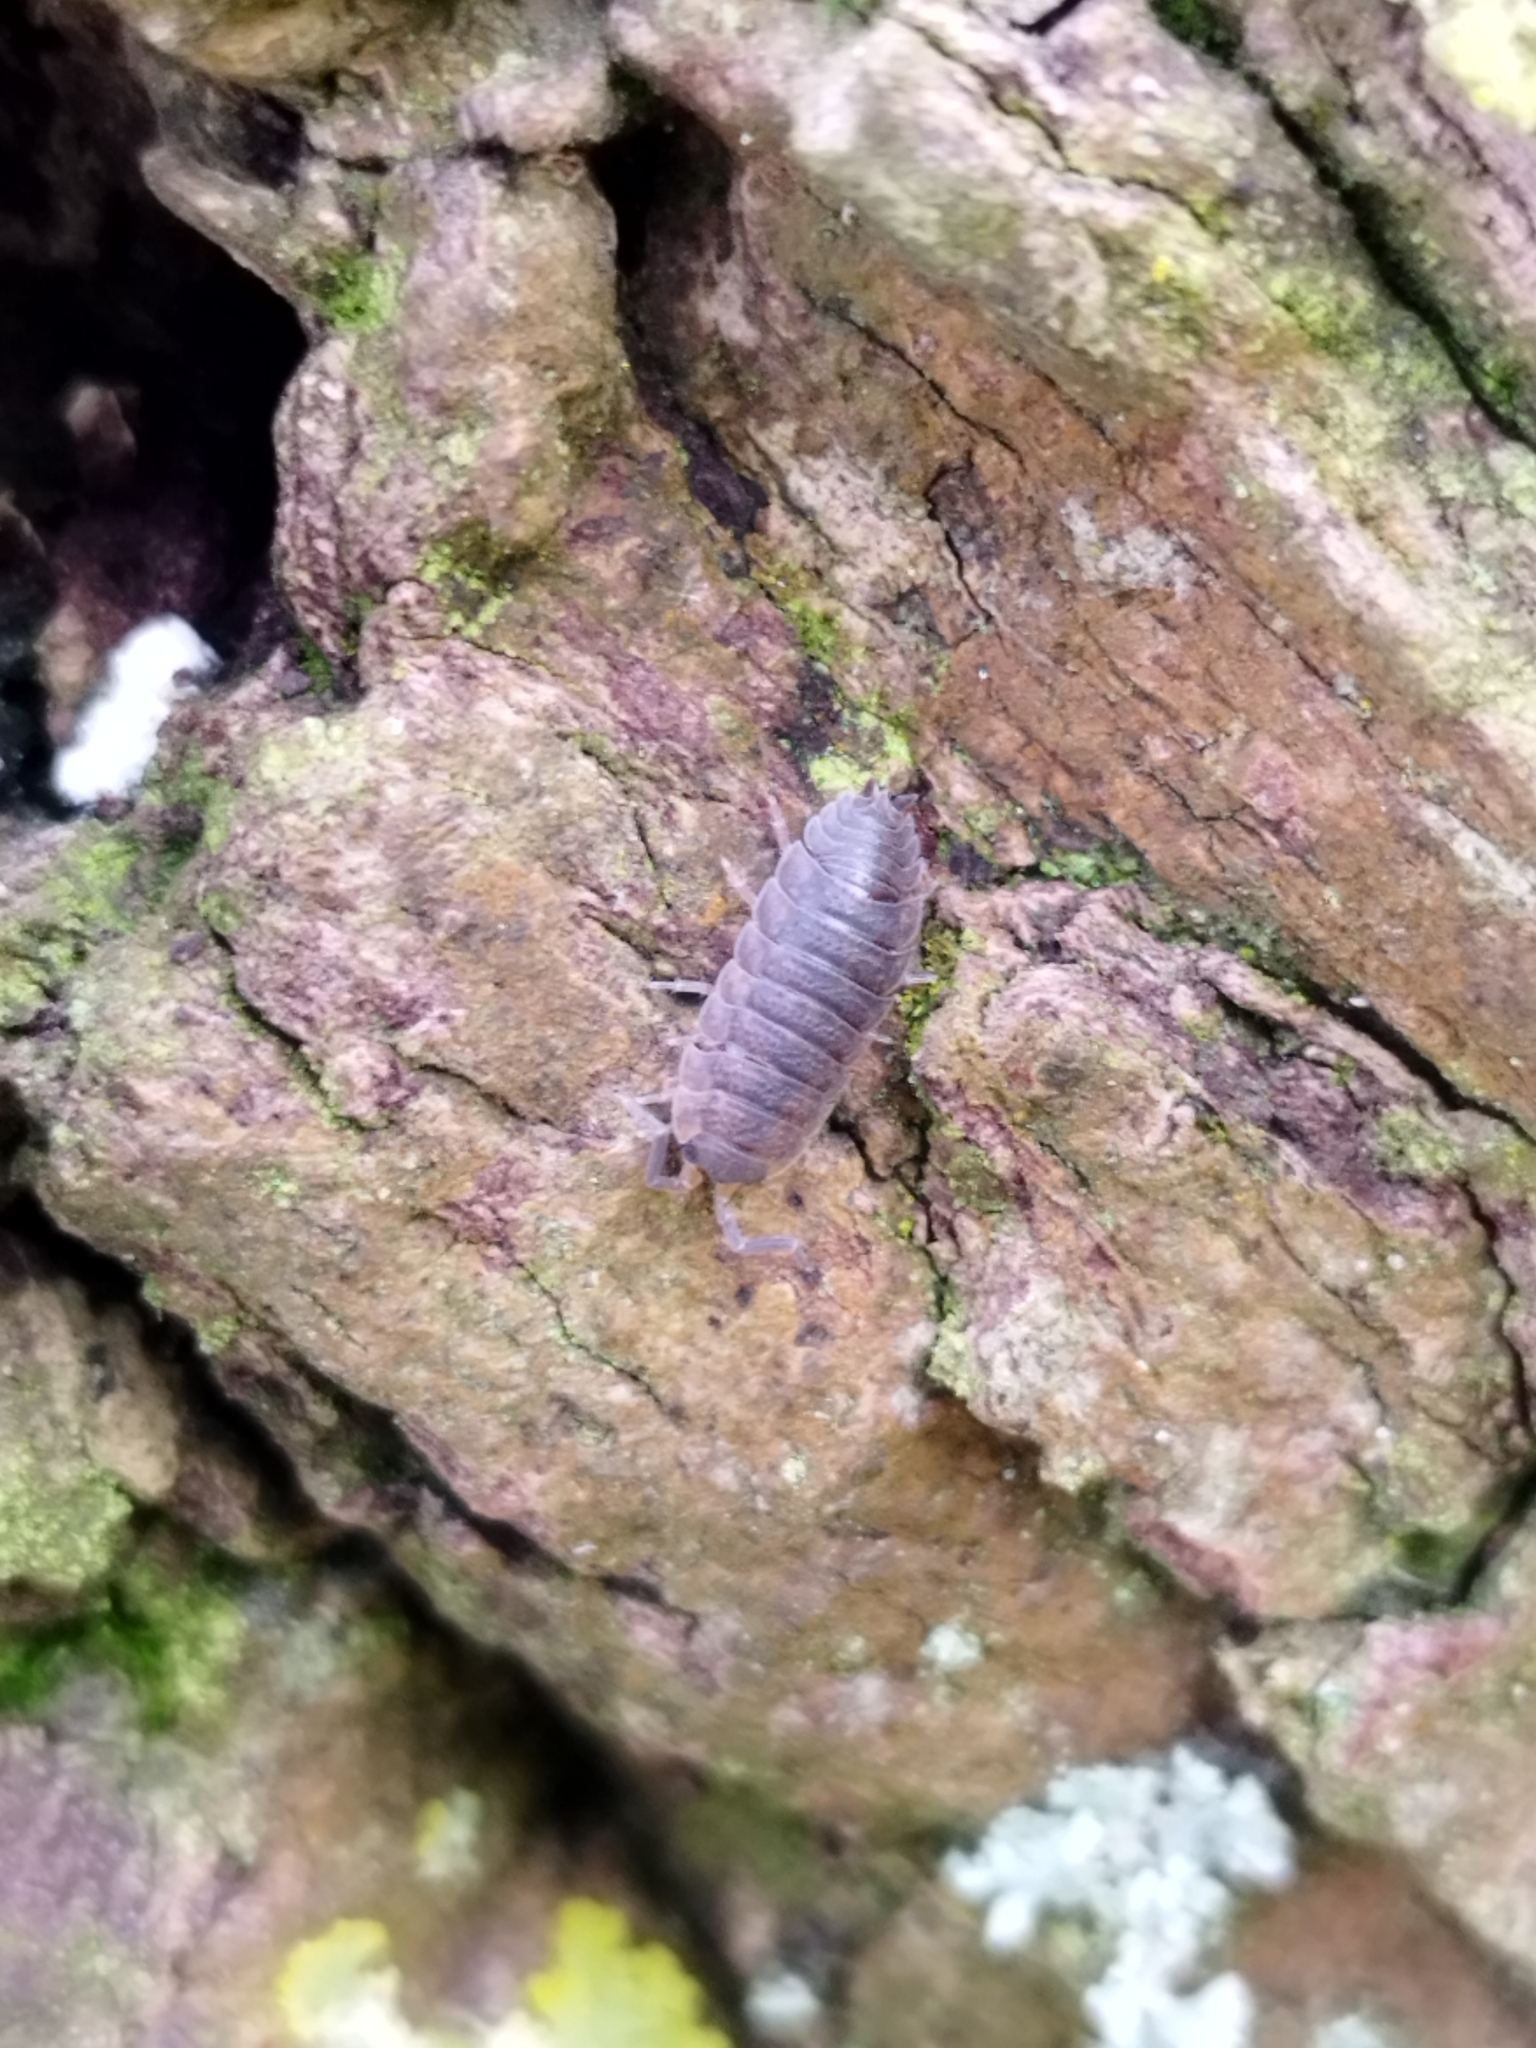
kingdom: Animalia
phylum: Arthropoda
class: Malacostraca
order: Isopoda
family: Porcellionidae
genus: Porcellio
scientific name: Porcellio scaber
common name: Common rough woodlouse
